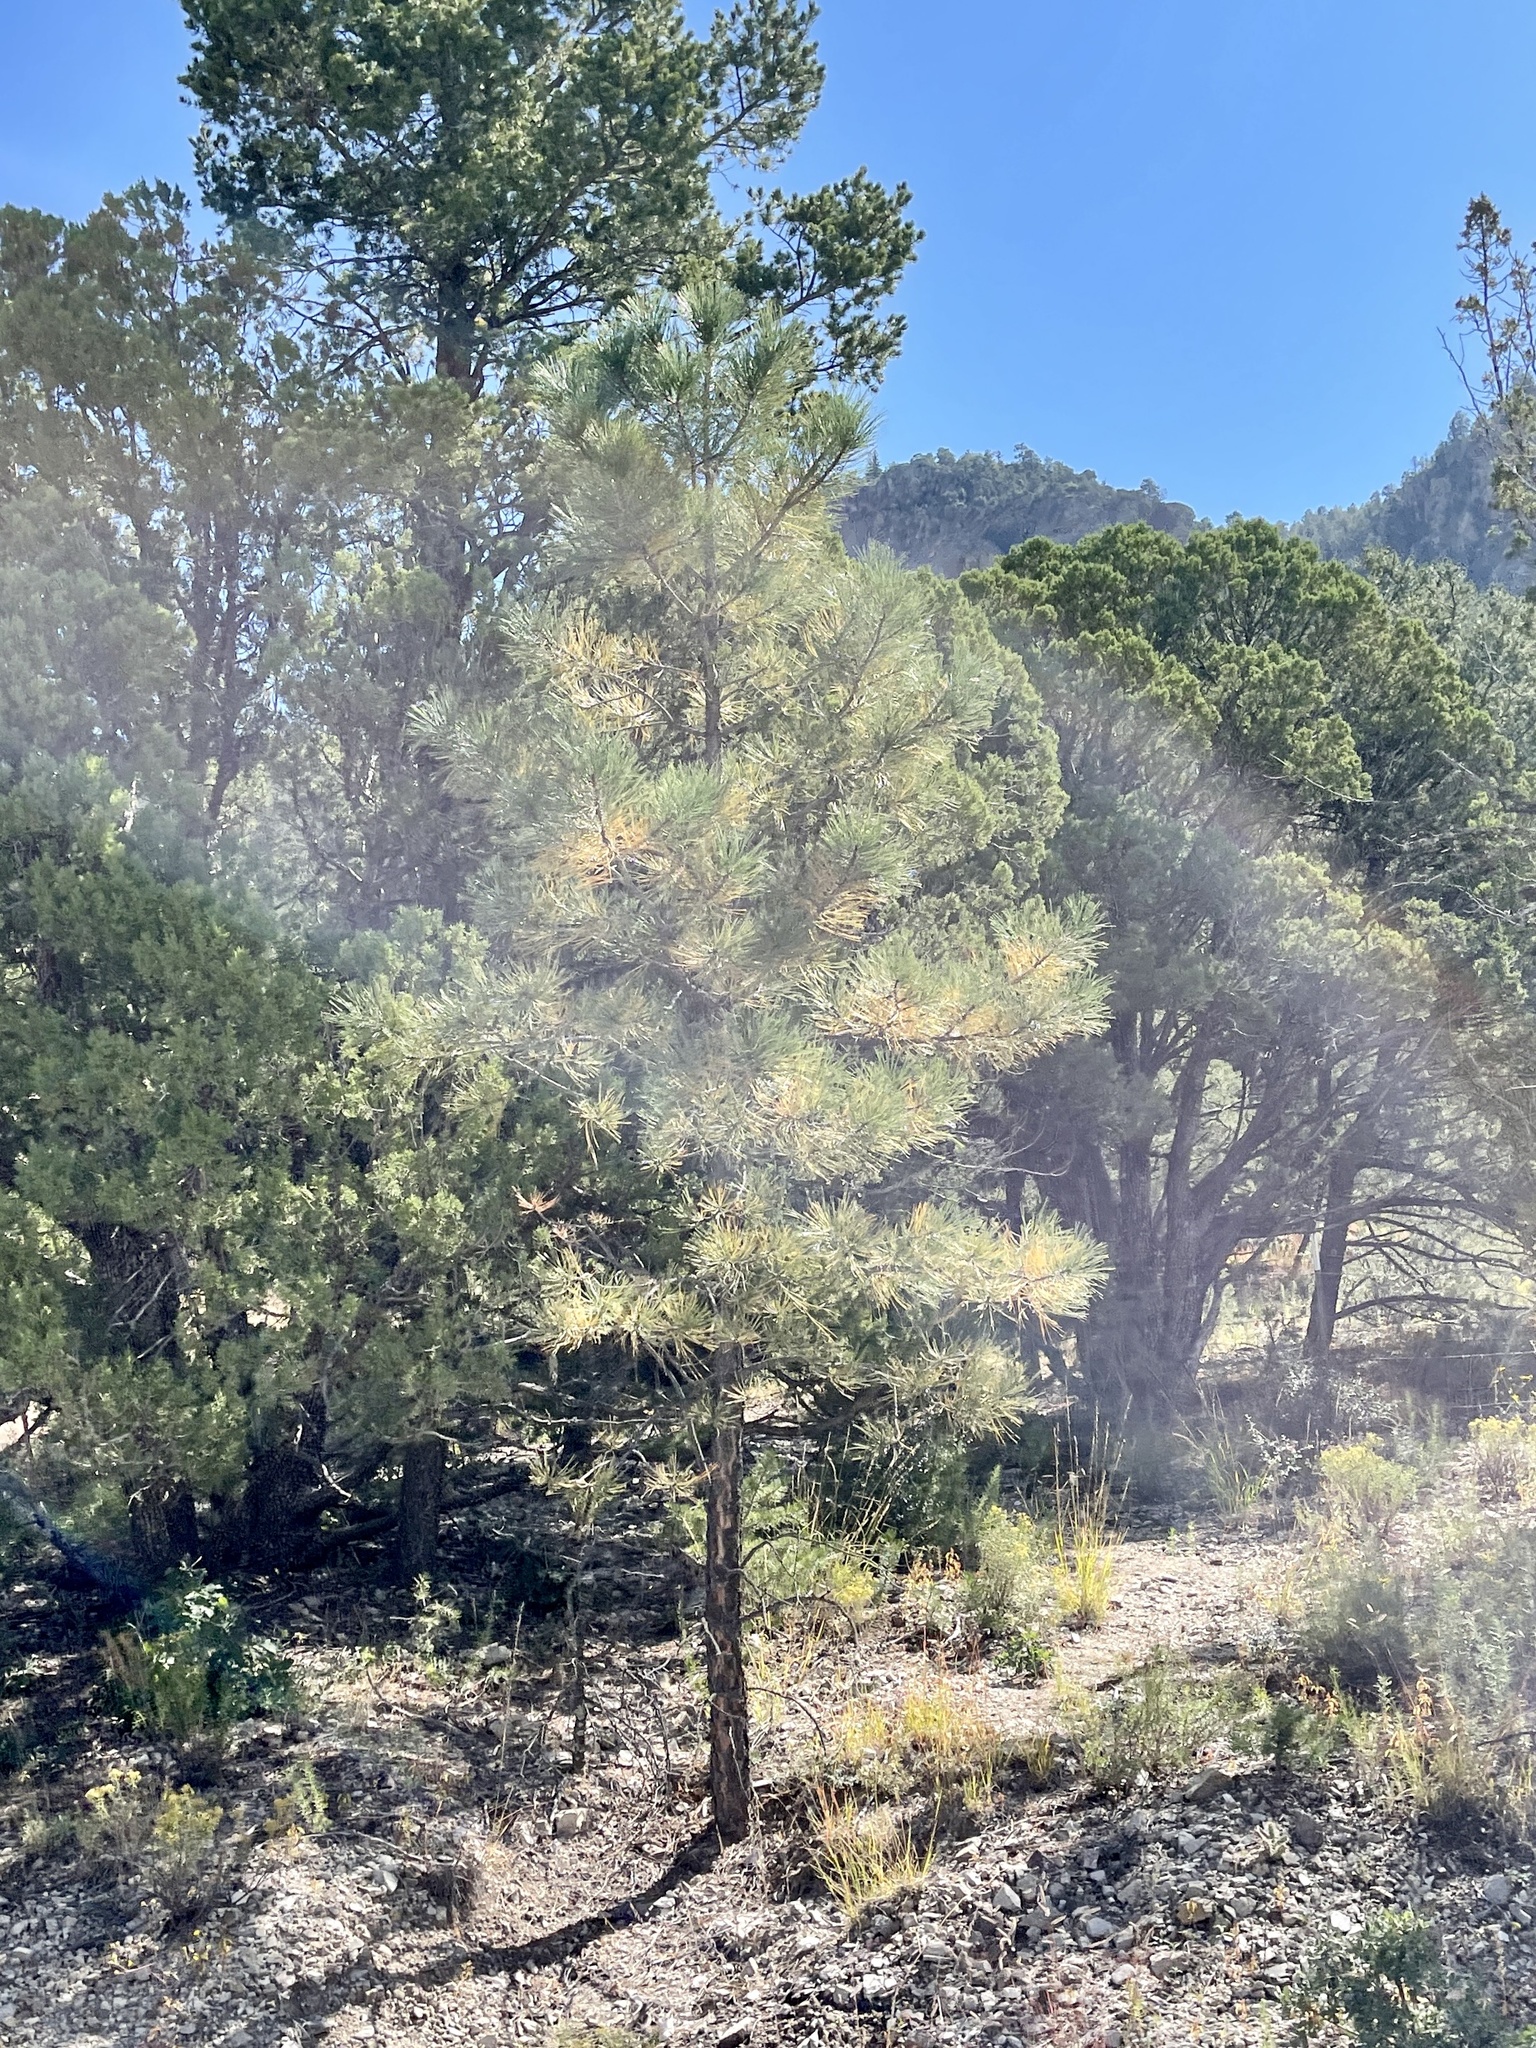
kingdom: Plantae
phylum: Tracheophyta
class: Pinopsida
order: Pinales
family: Pinaceae
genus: Pinus
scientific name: Pinus ponderosa
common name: Western yellow-pine
